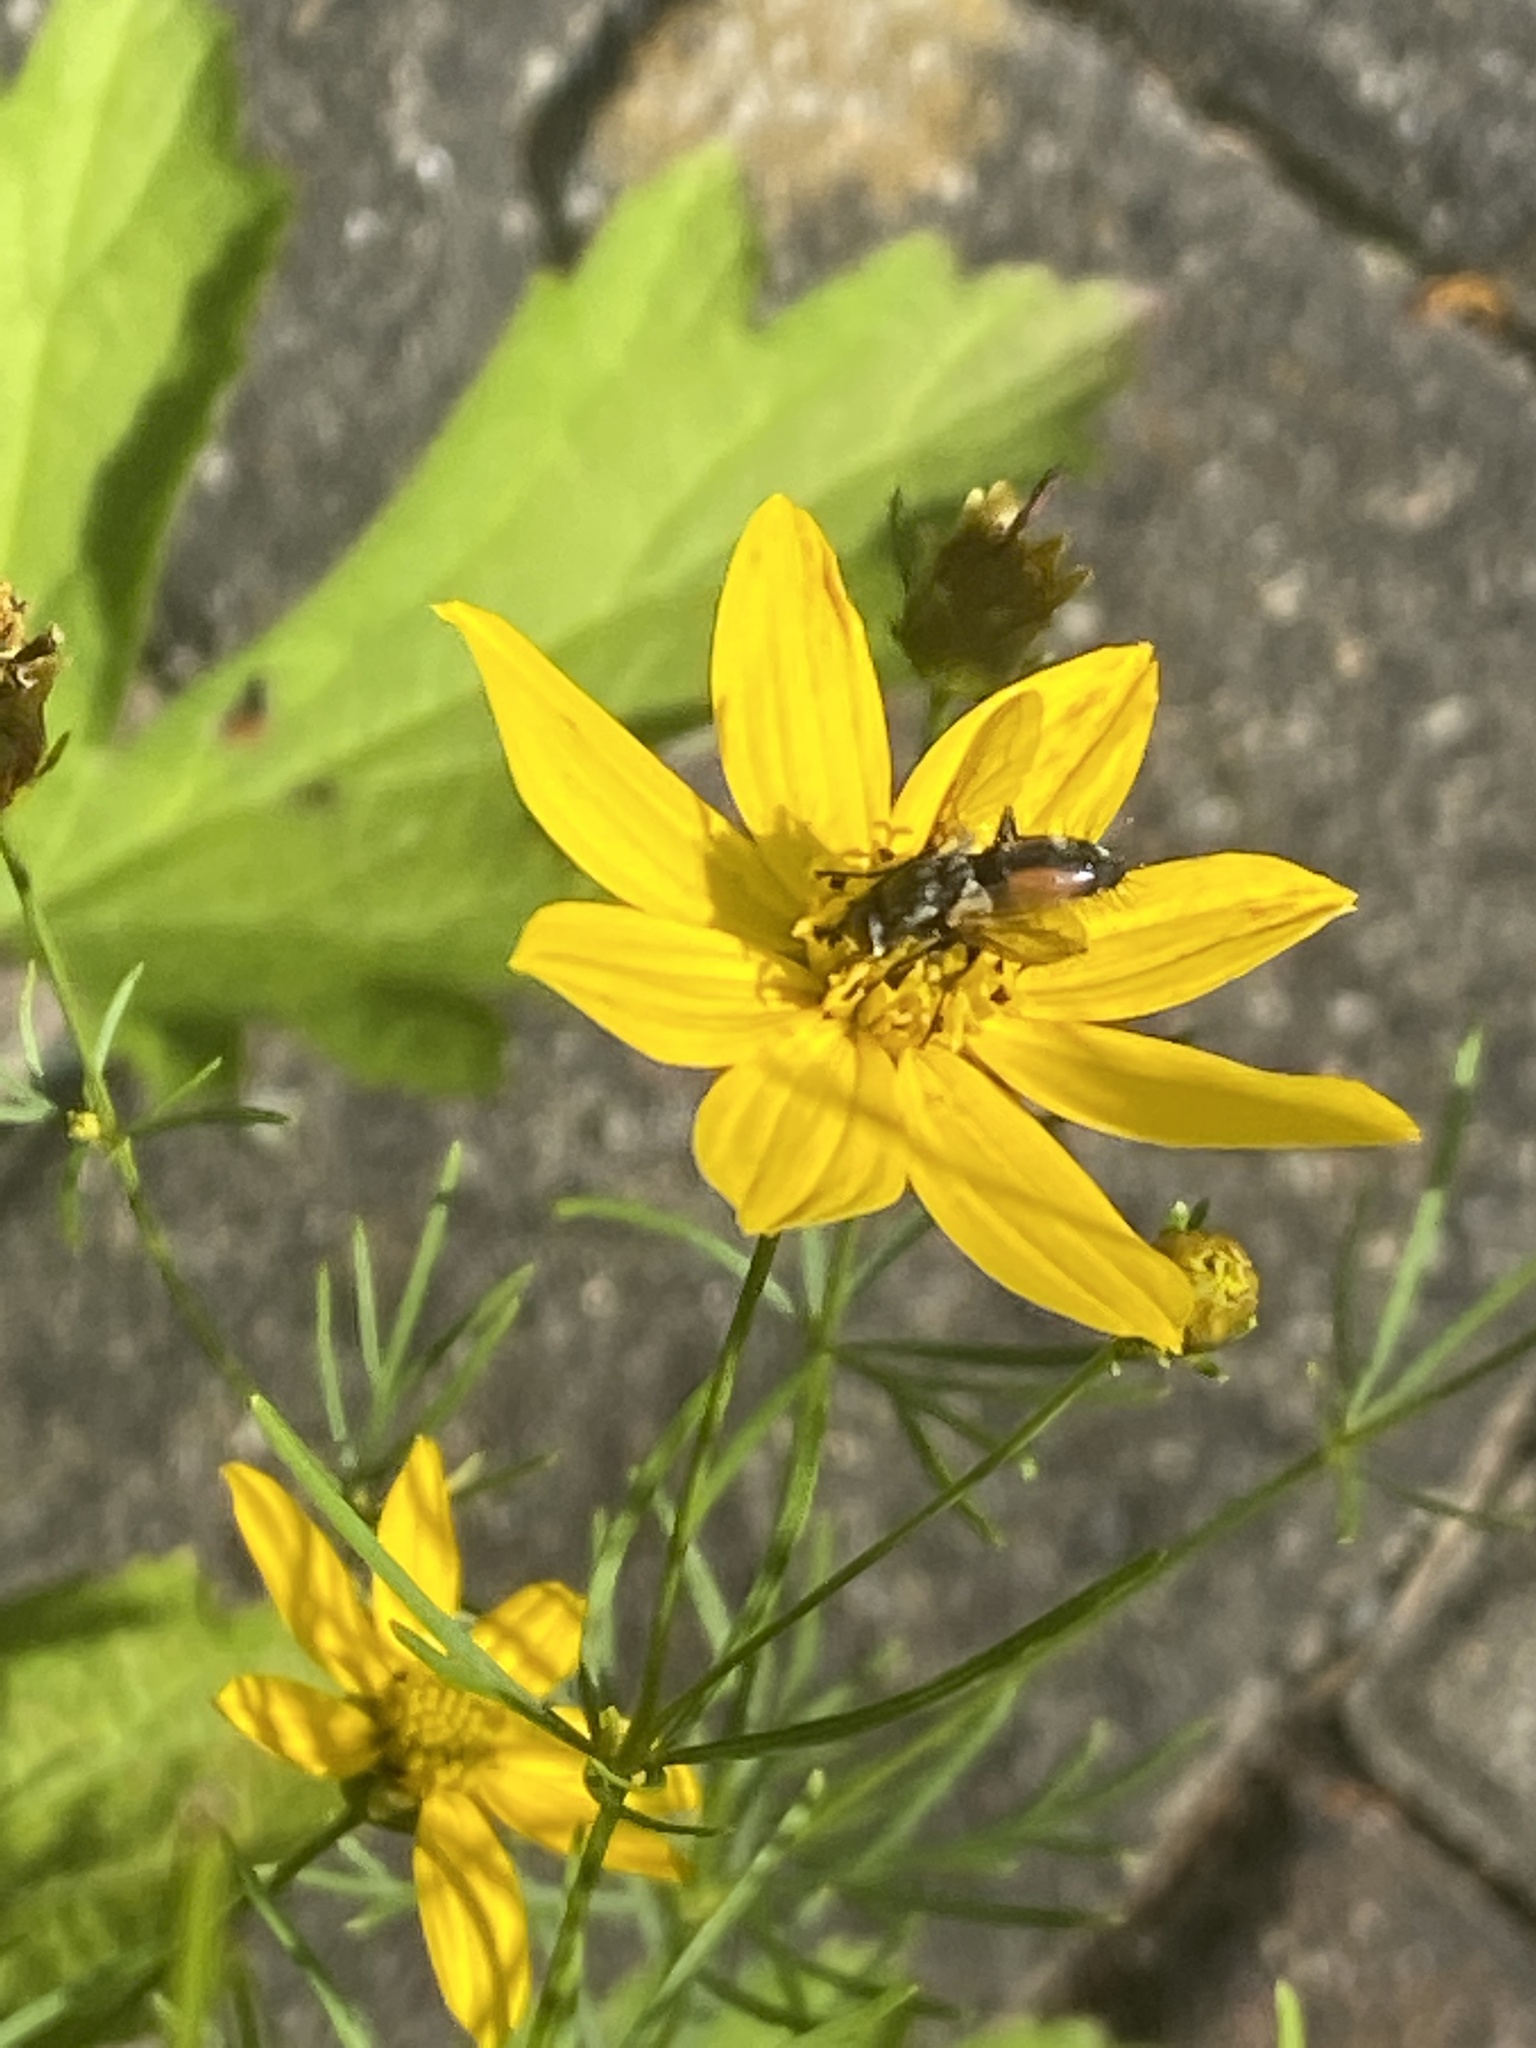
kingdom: Animalia
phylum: Arthropoda
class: Insecta
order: Diptera
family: Tachinidae
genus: Eriothrix
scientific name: Eriothrix rufomaculatus
